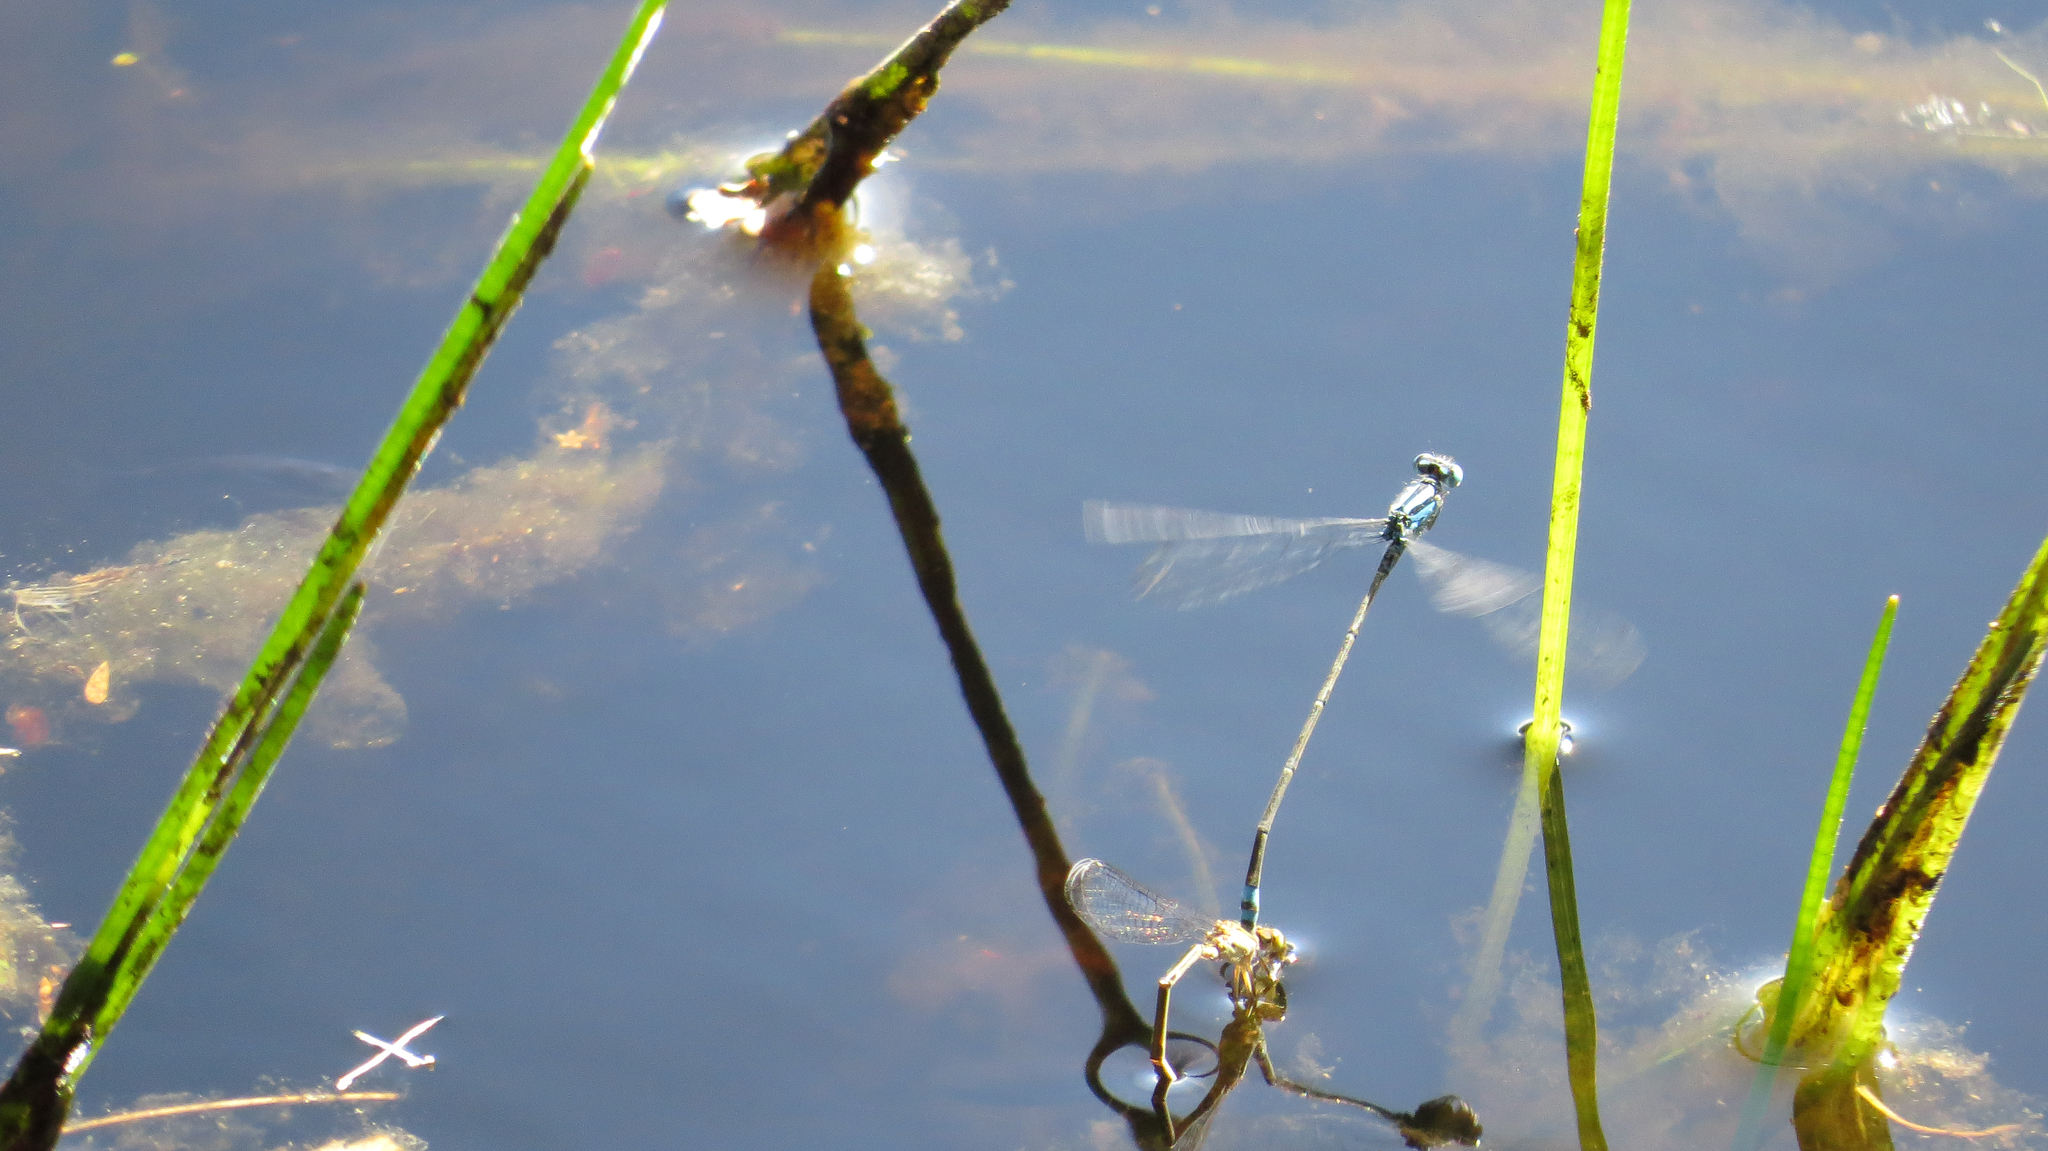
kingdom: Animalia
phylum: Arthropoda
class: Insecta
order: Odonata
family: Coenagrionidae
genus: Pseudagrion
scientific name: Pseudagrion microcephalum
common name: Blue riverdamsel
